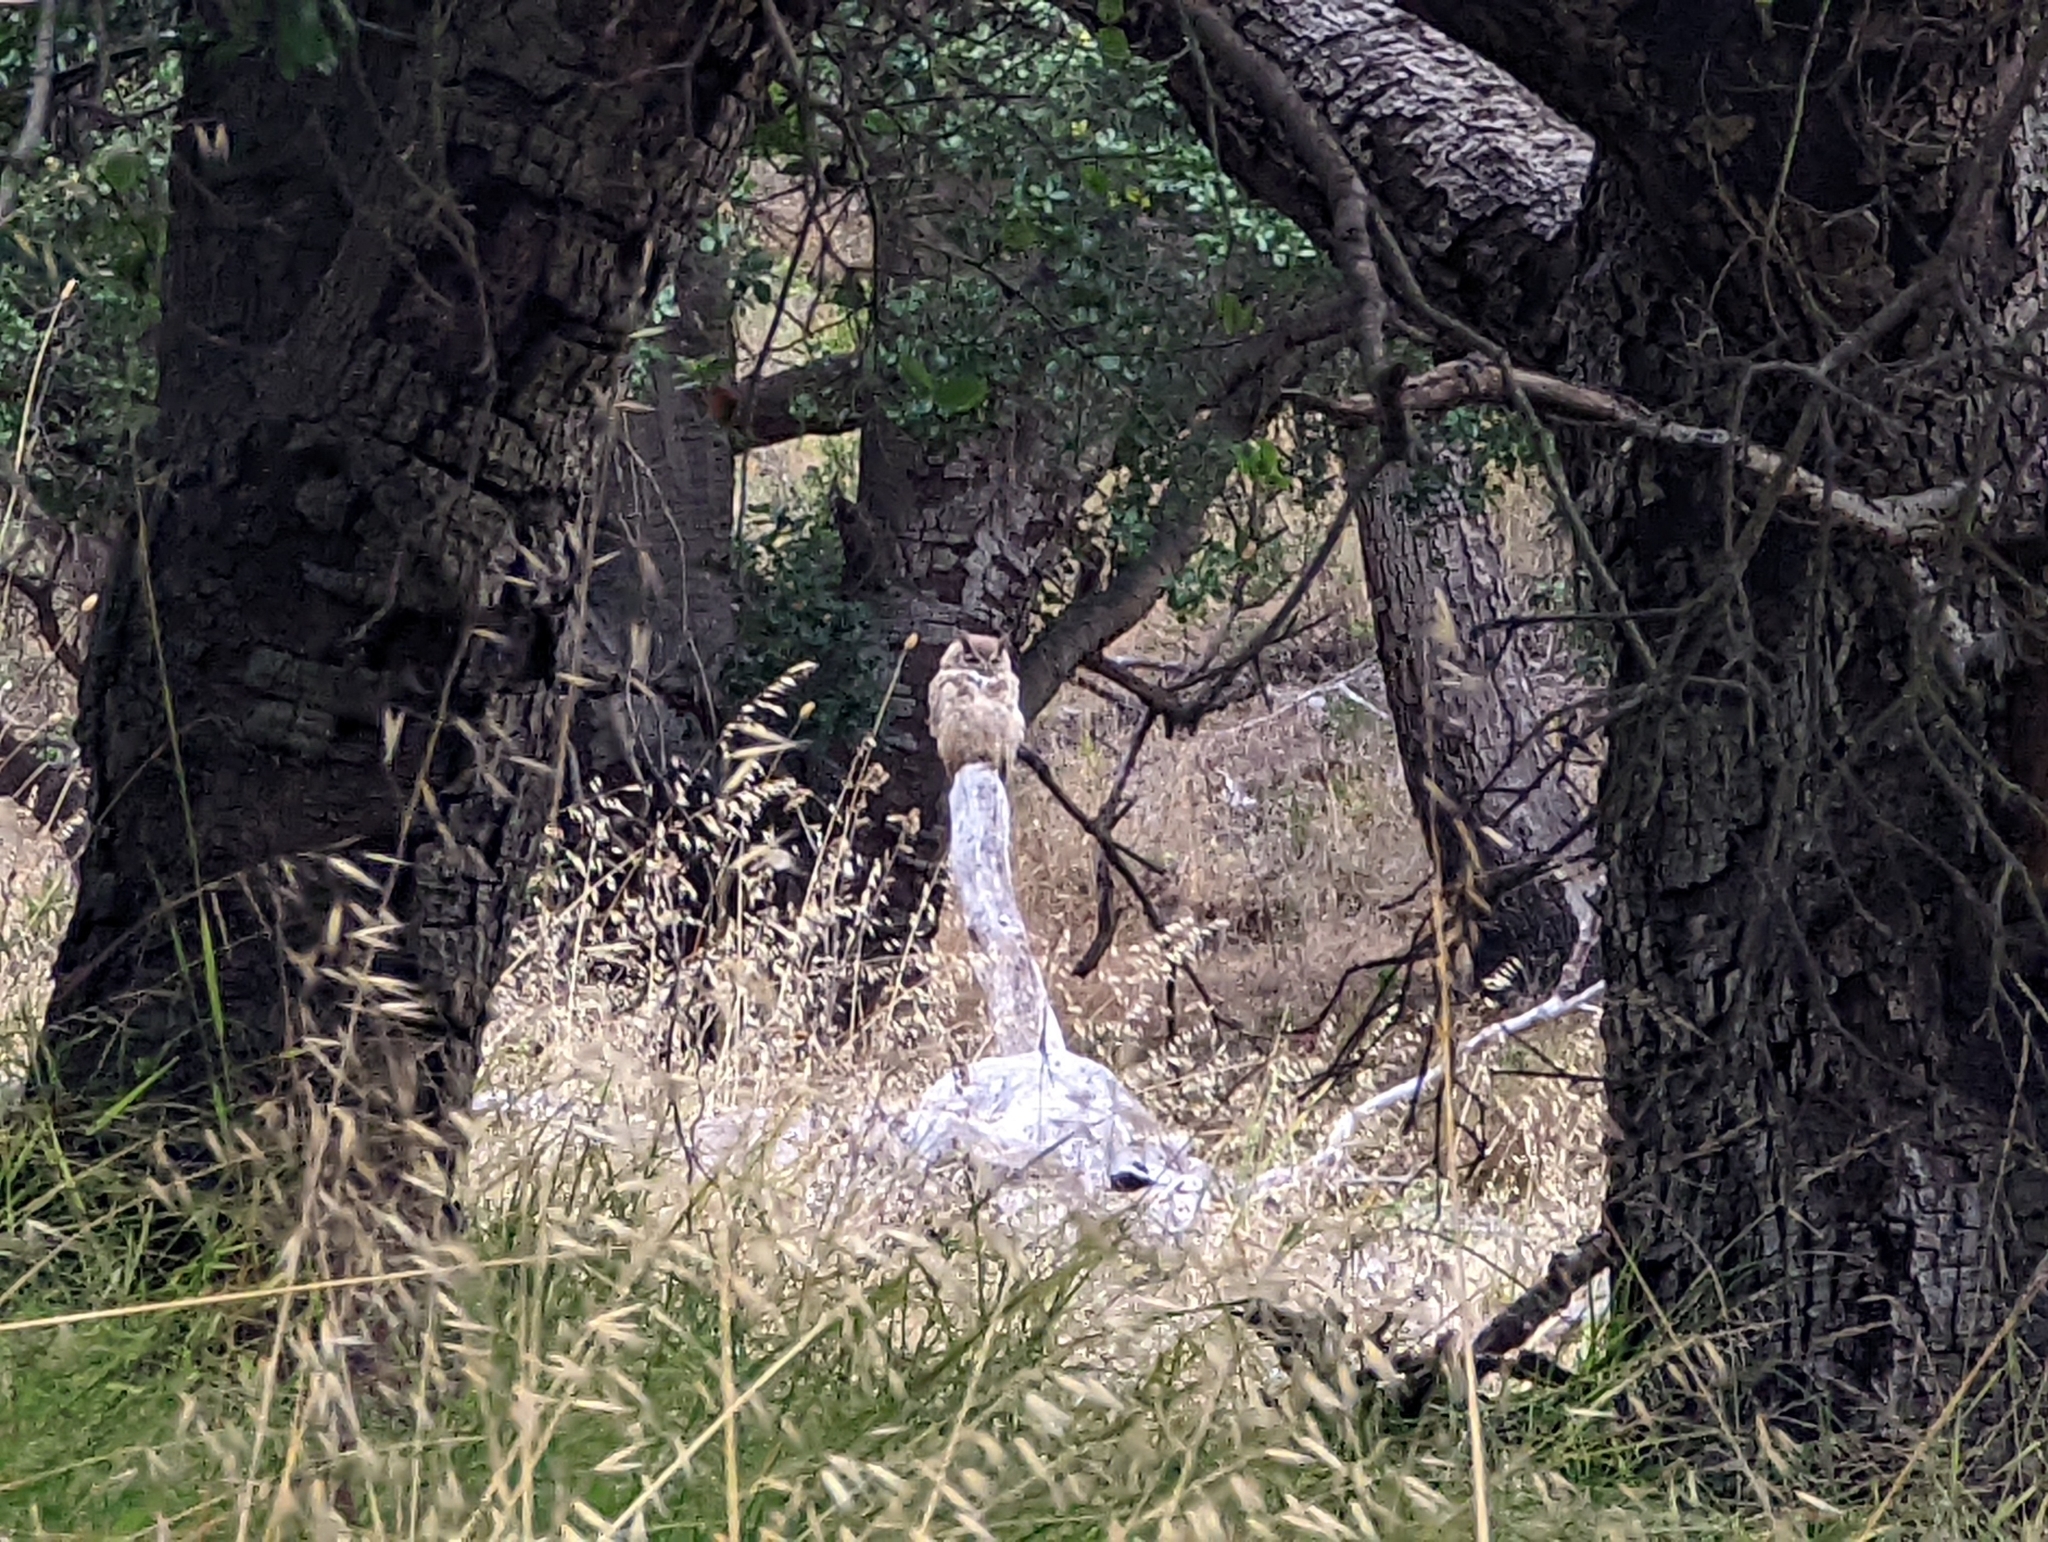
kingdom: Animalia
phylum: Chordata
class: Aves
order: Strigiformes
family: Strigidae
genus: Bubo
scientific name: Bubo virginianus
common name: Great horned owl
